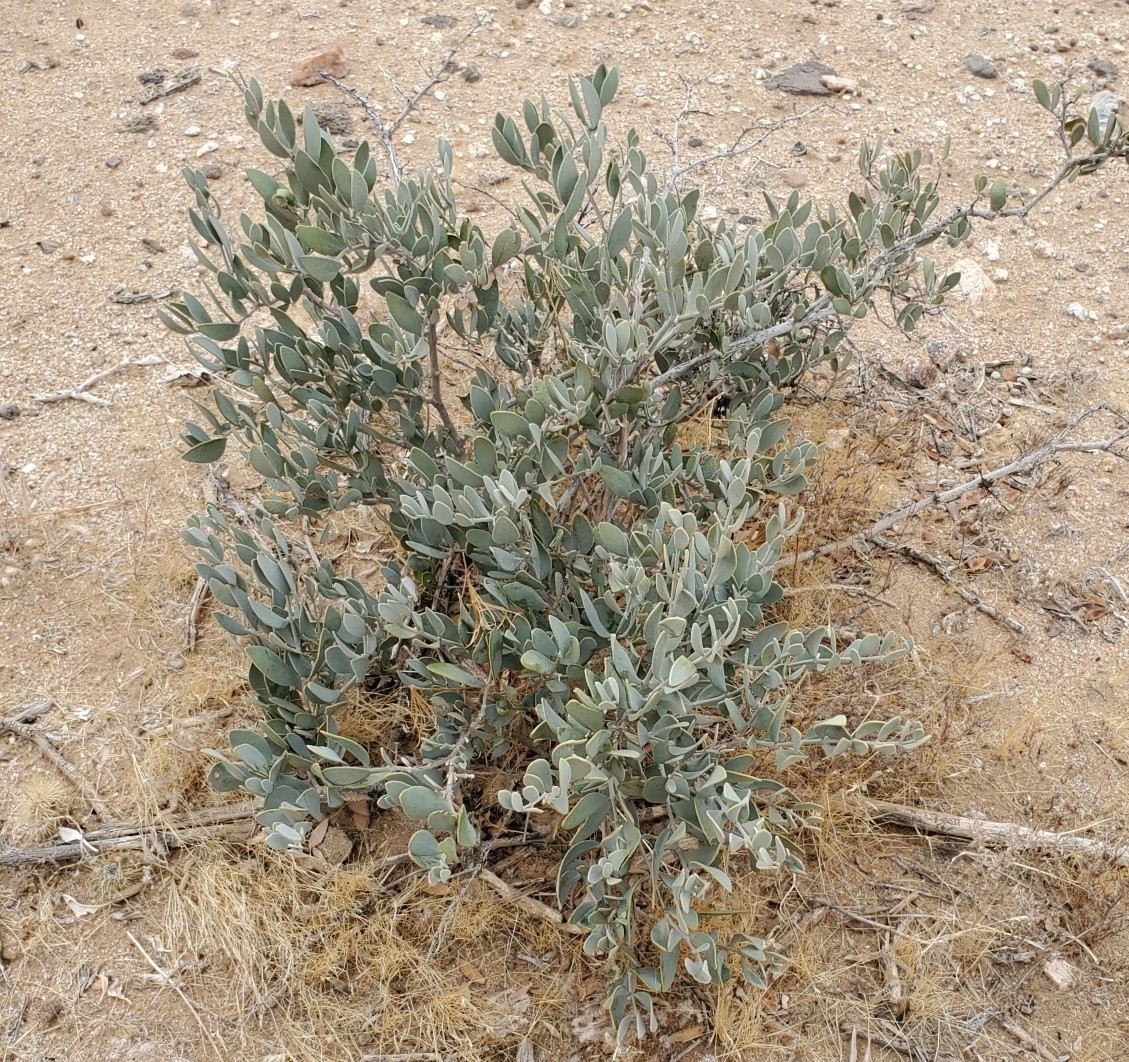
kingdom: Plantae
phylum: Tracheophyta
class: Magnoliopsida
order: Caryophyllales
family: Simmondsiaceae
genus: Simmondsia
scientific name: Simmondsia chinensis
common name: Jojoba
